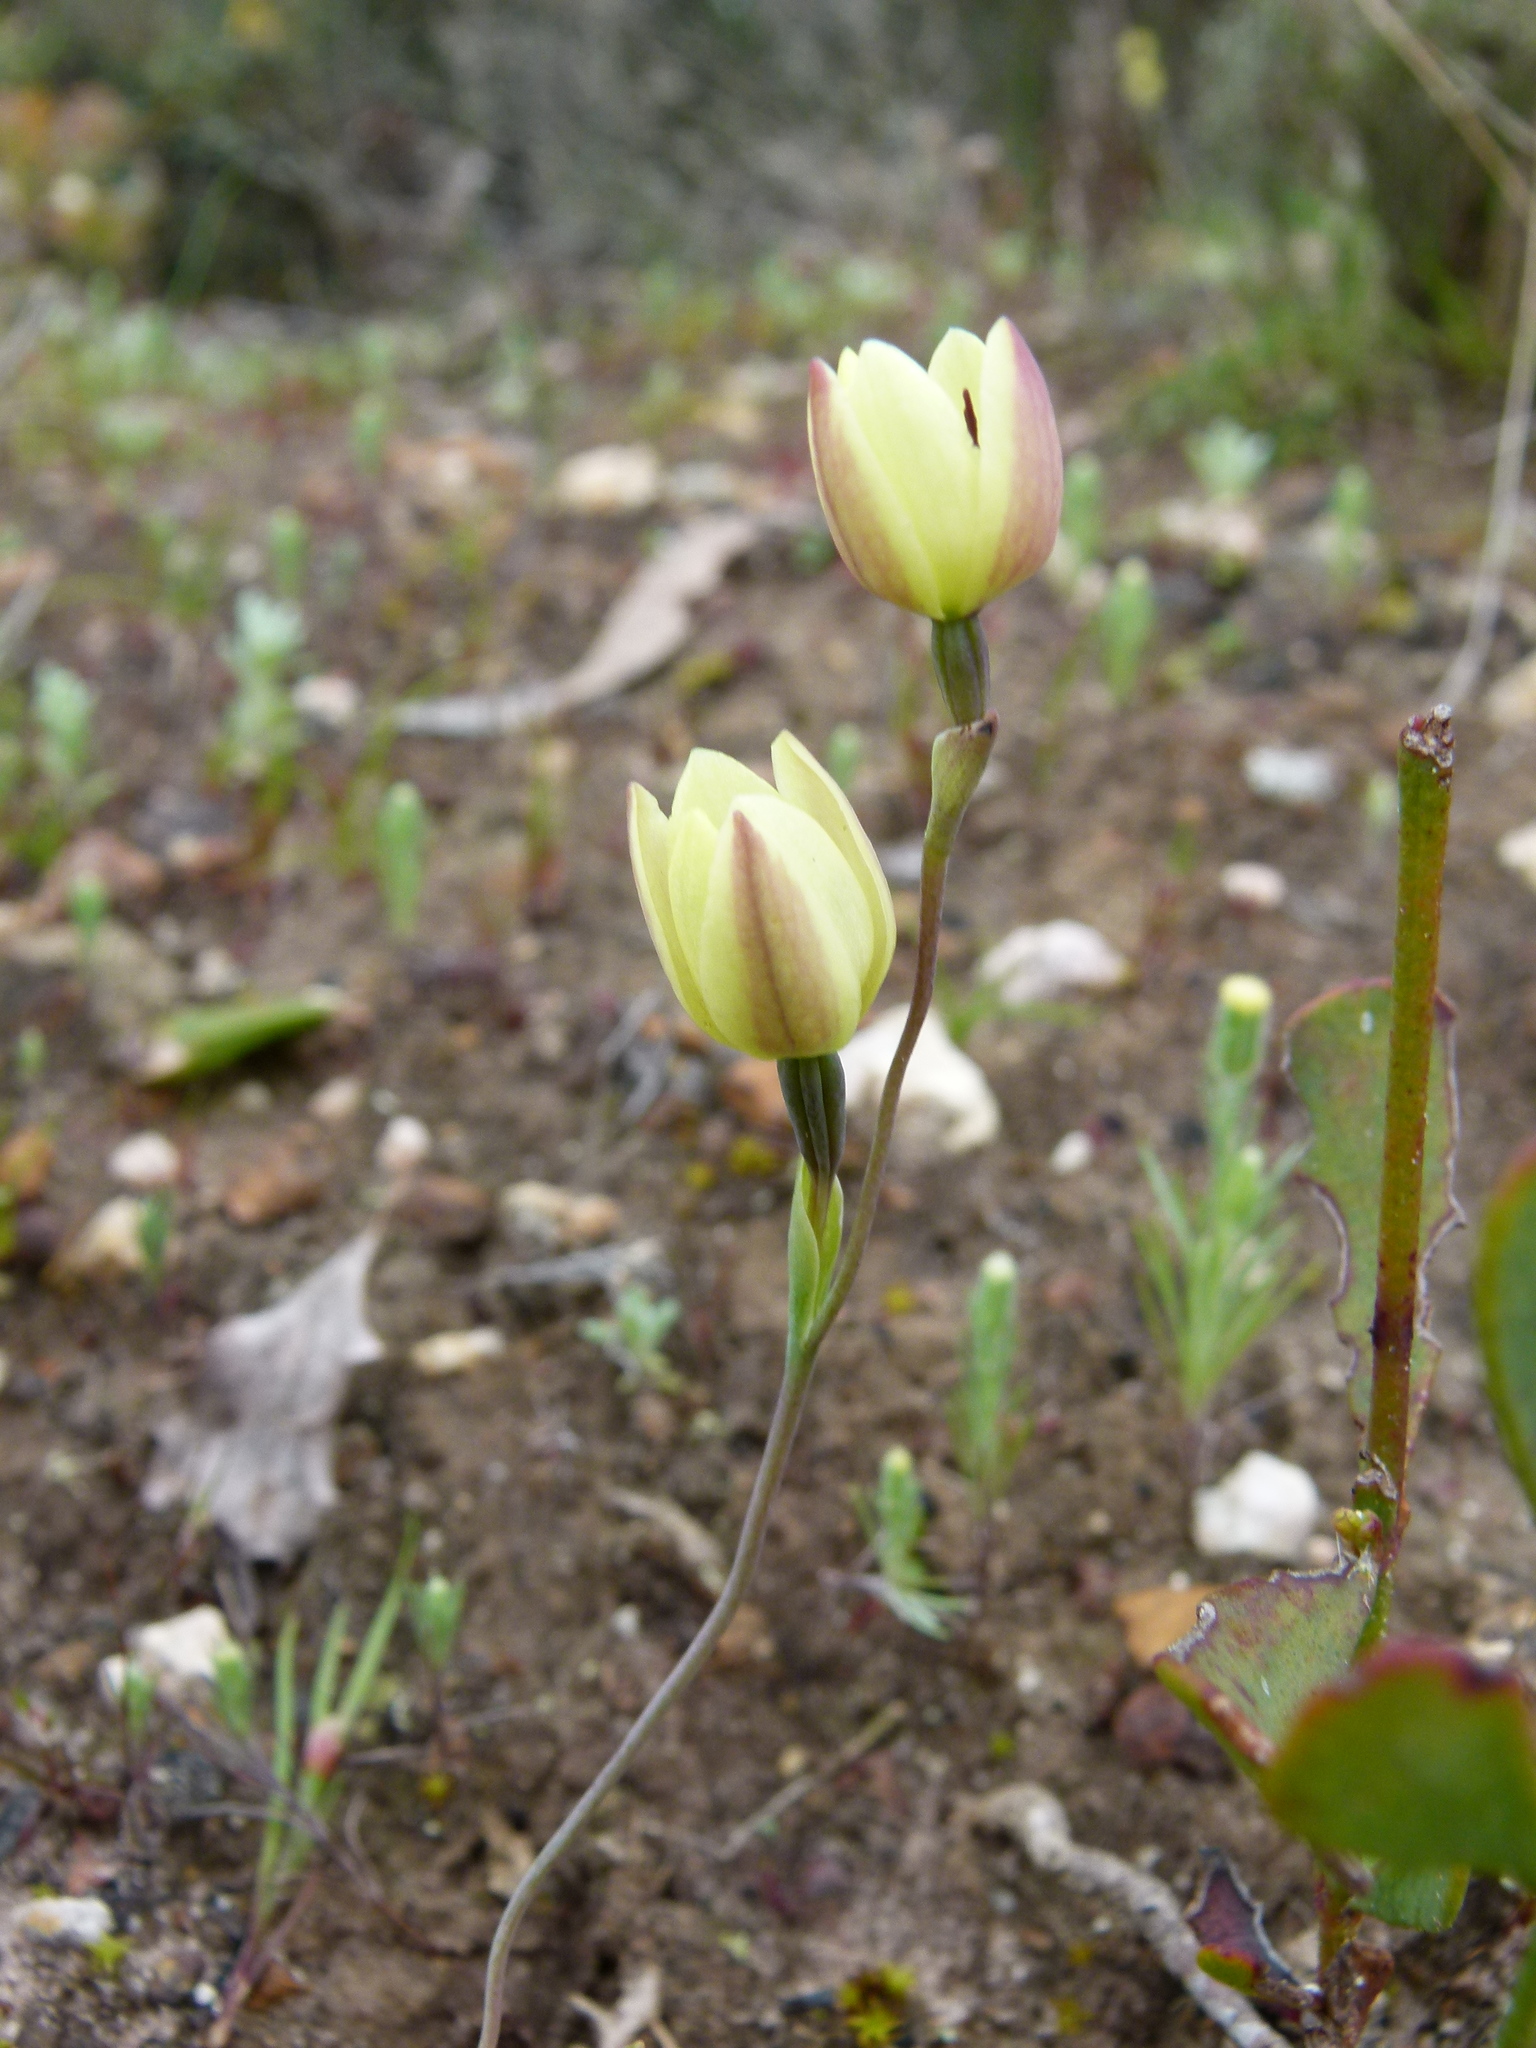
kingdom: Plantae
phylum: Tracheophyta
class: Liliopsida
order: Asparagales
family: Orchidaceae
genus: Thelymitra
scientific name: Thelymitra antennifera
